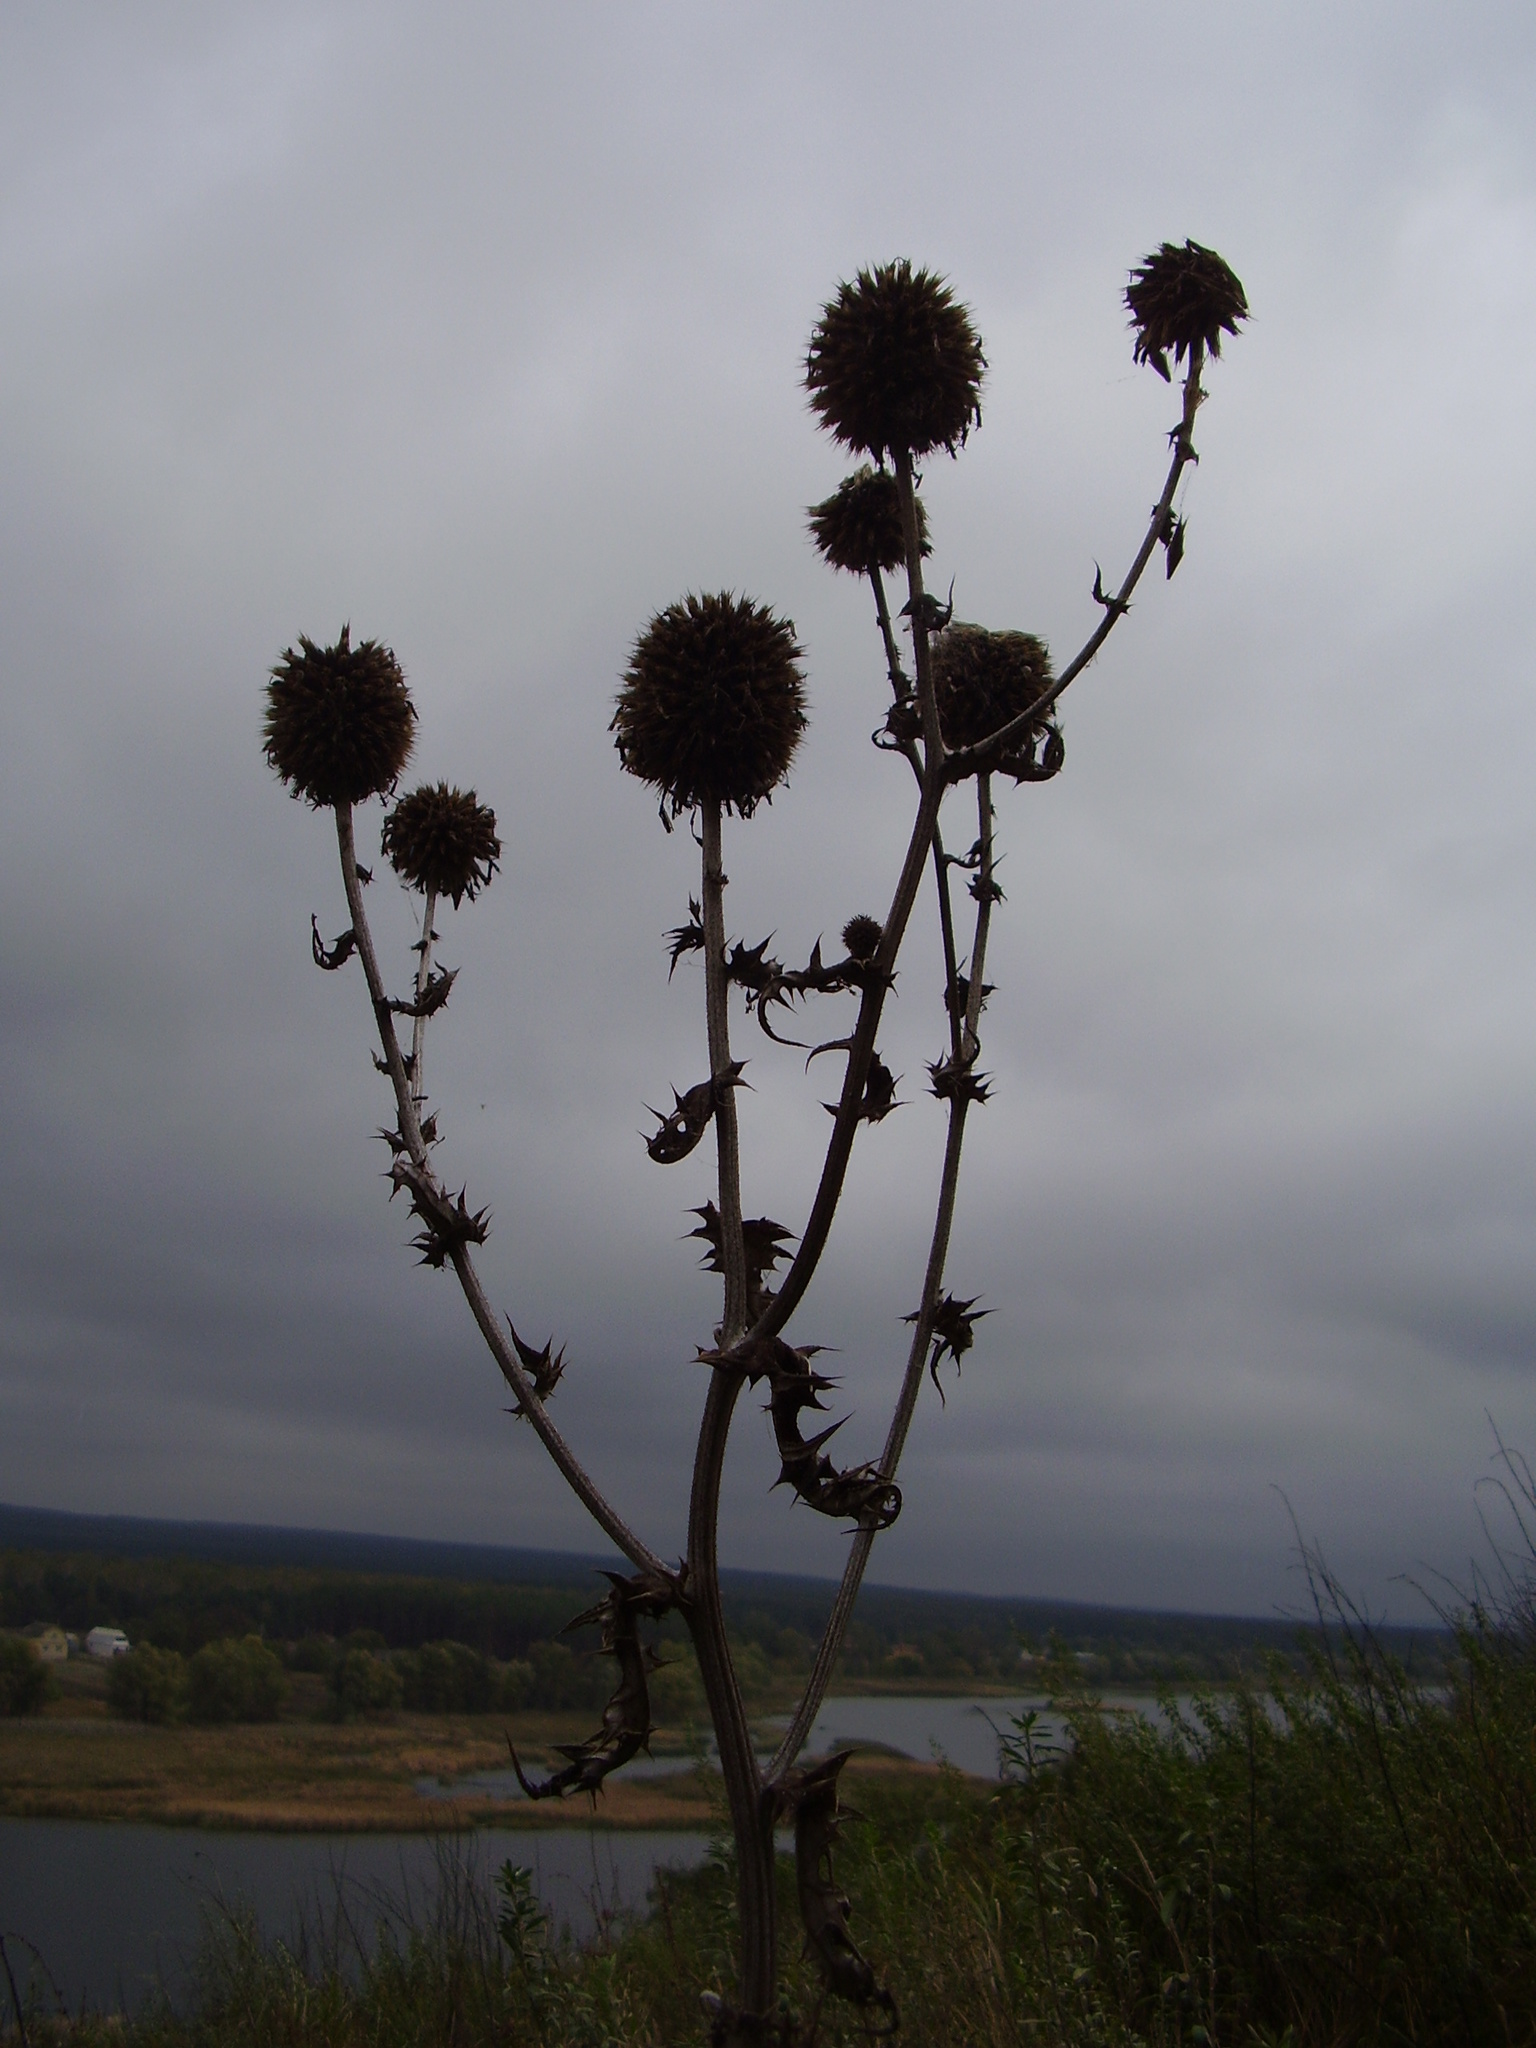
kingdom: Plantae
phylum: Tracheophyta
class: Magnoliopsida
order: Asterales
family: Asteraceae
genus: Echinops
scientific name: Echinops sphaerocephalus
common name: Glandular globe-thistle
